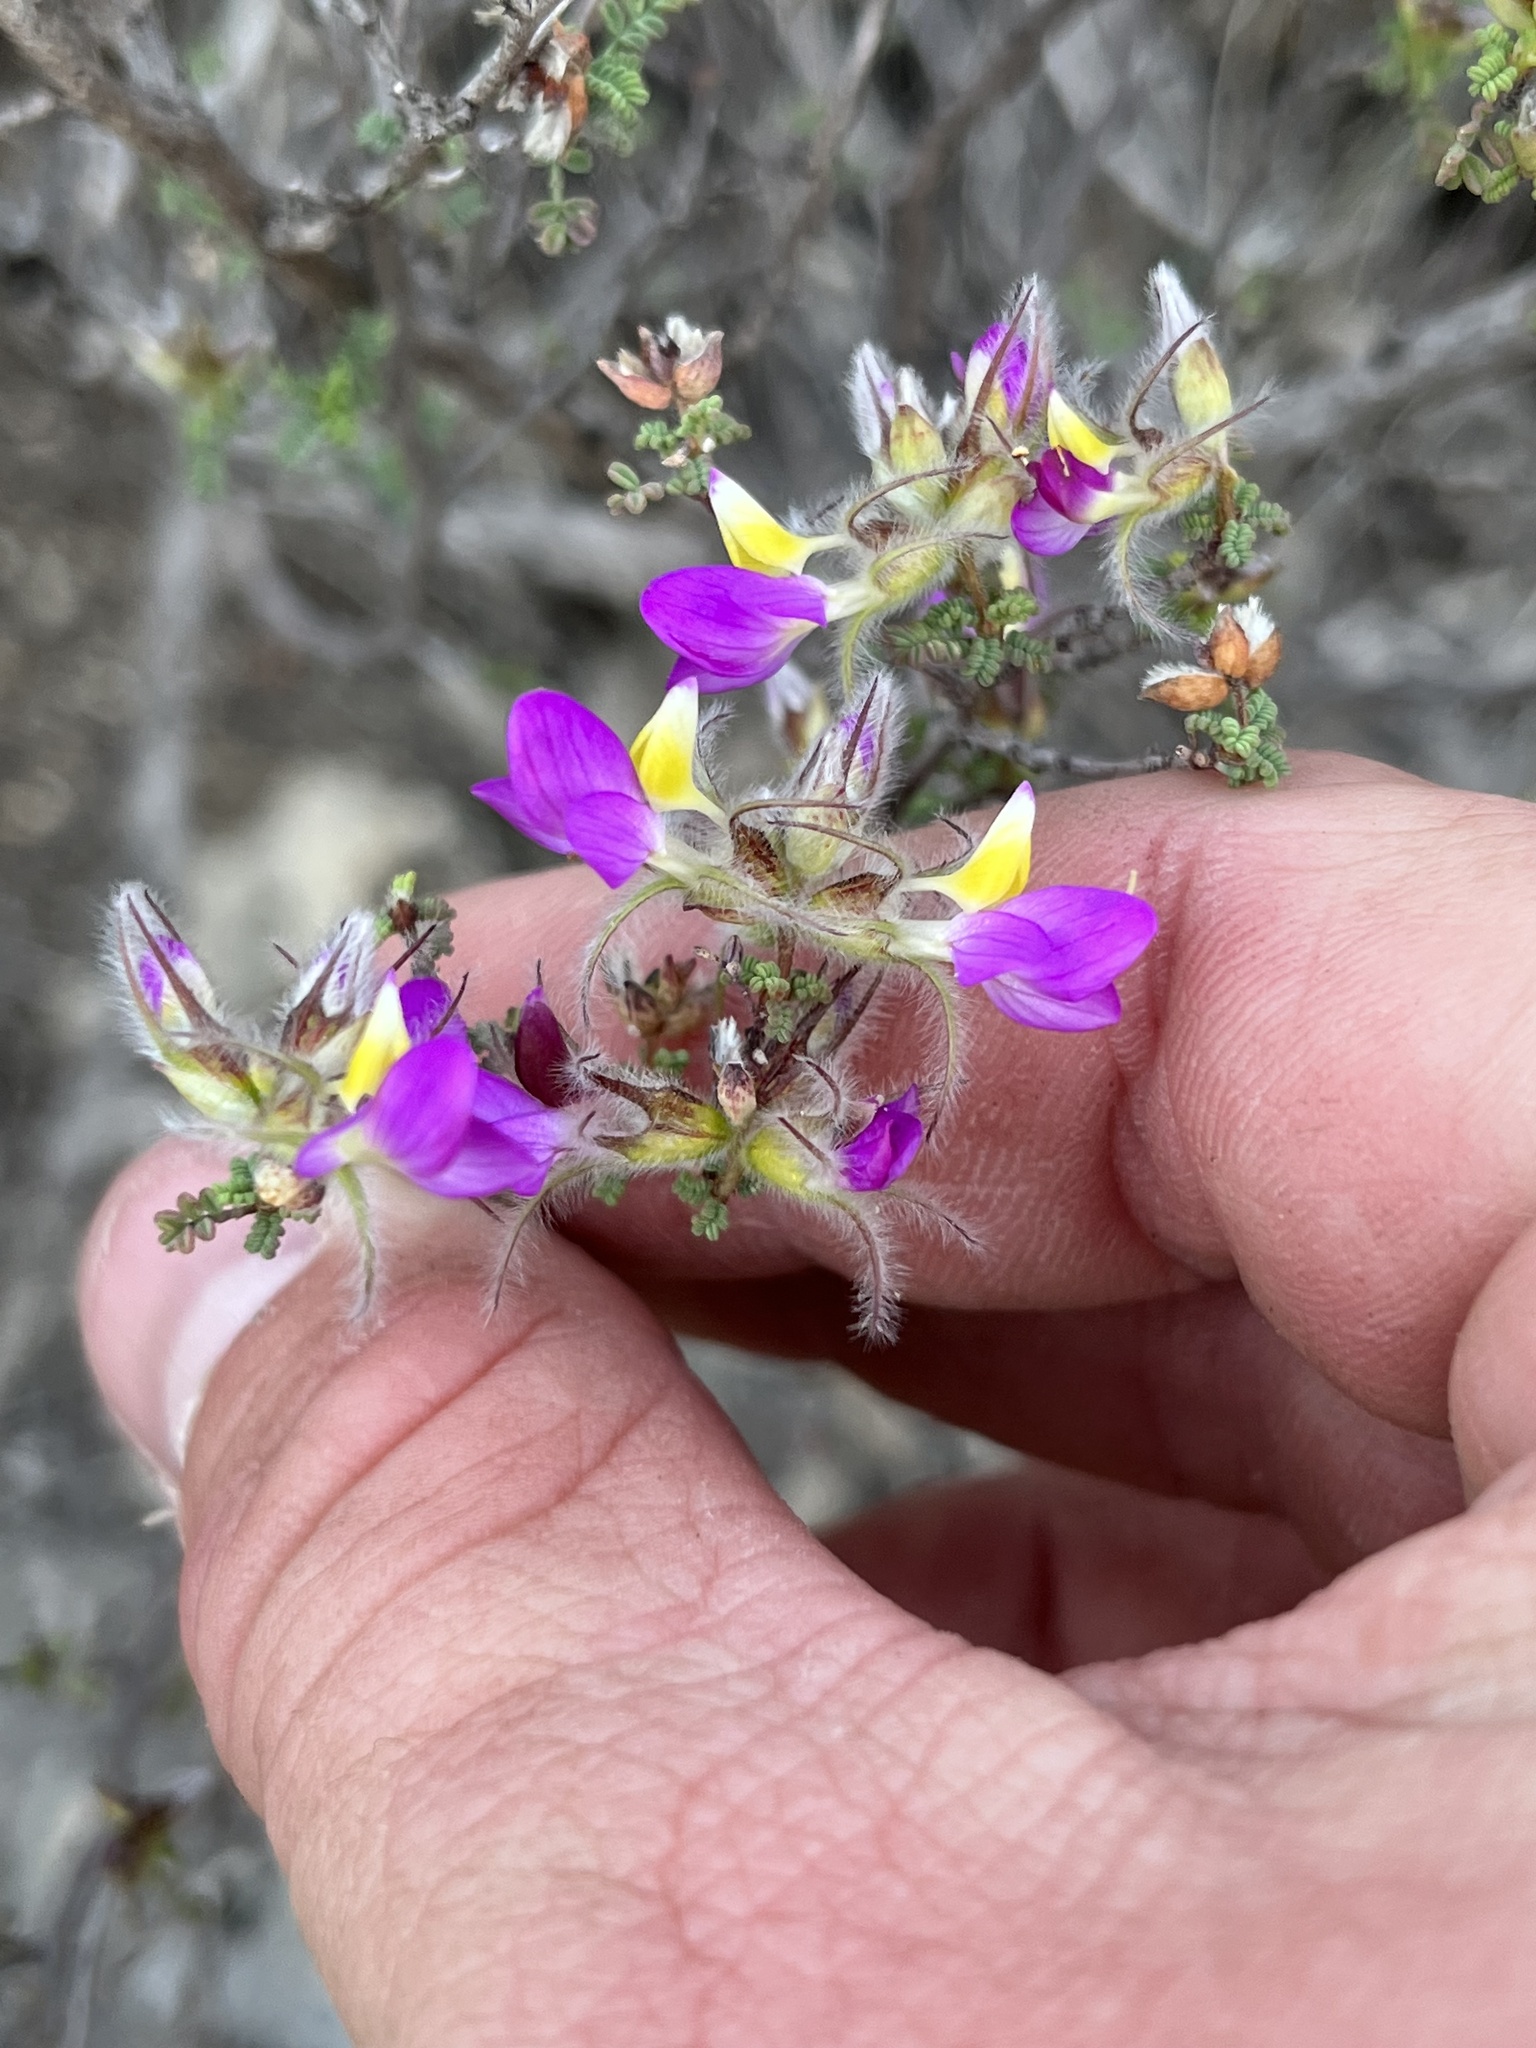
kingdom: Plantae
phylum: Tracheophyta
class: Magnoliopsida
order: Fabales
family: Fabaceae
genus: Dalea
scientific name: Dalea formosa
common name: Feather-plume dalea
